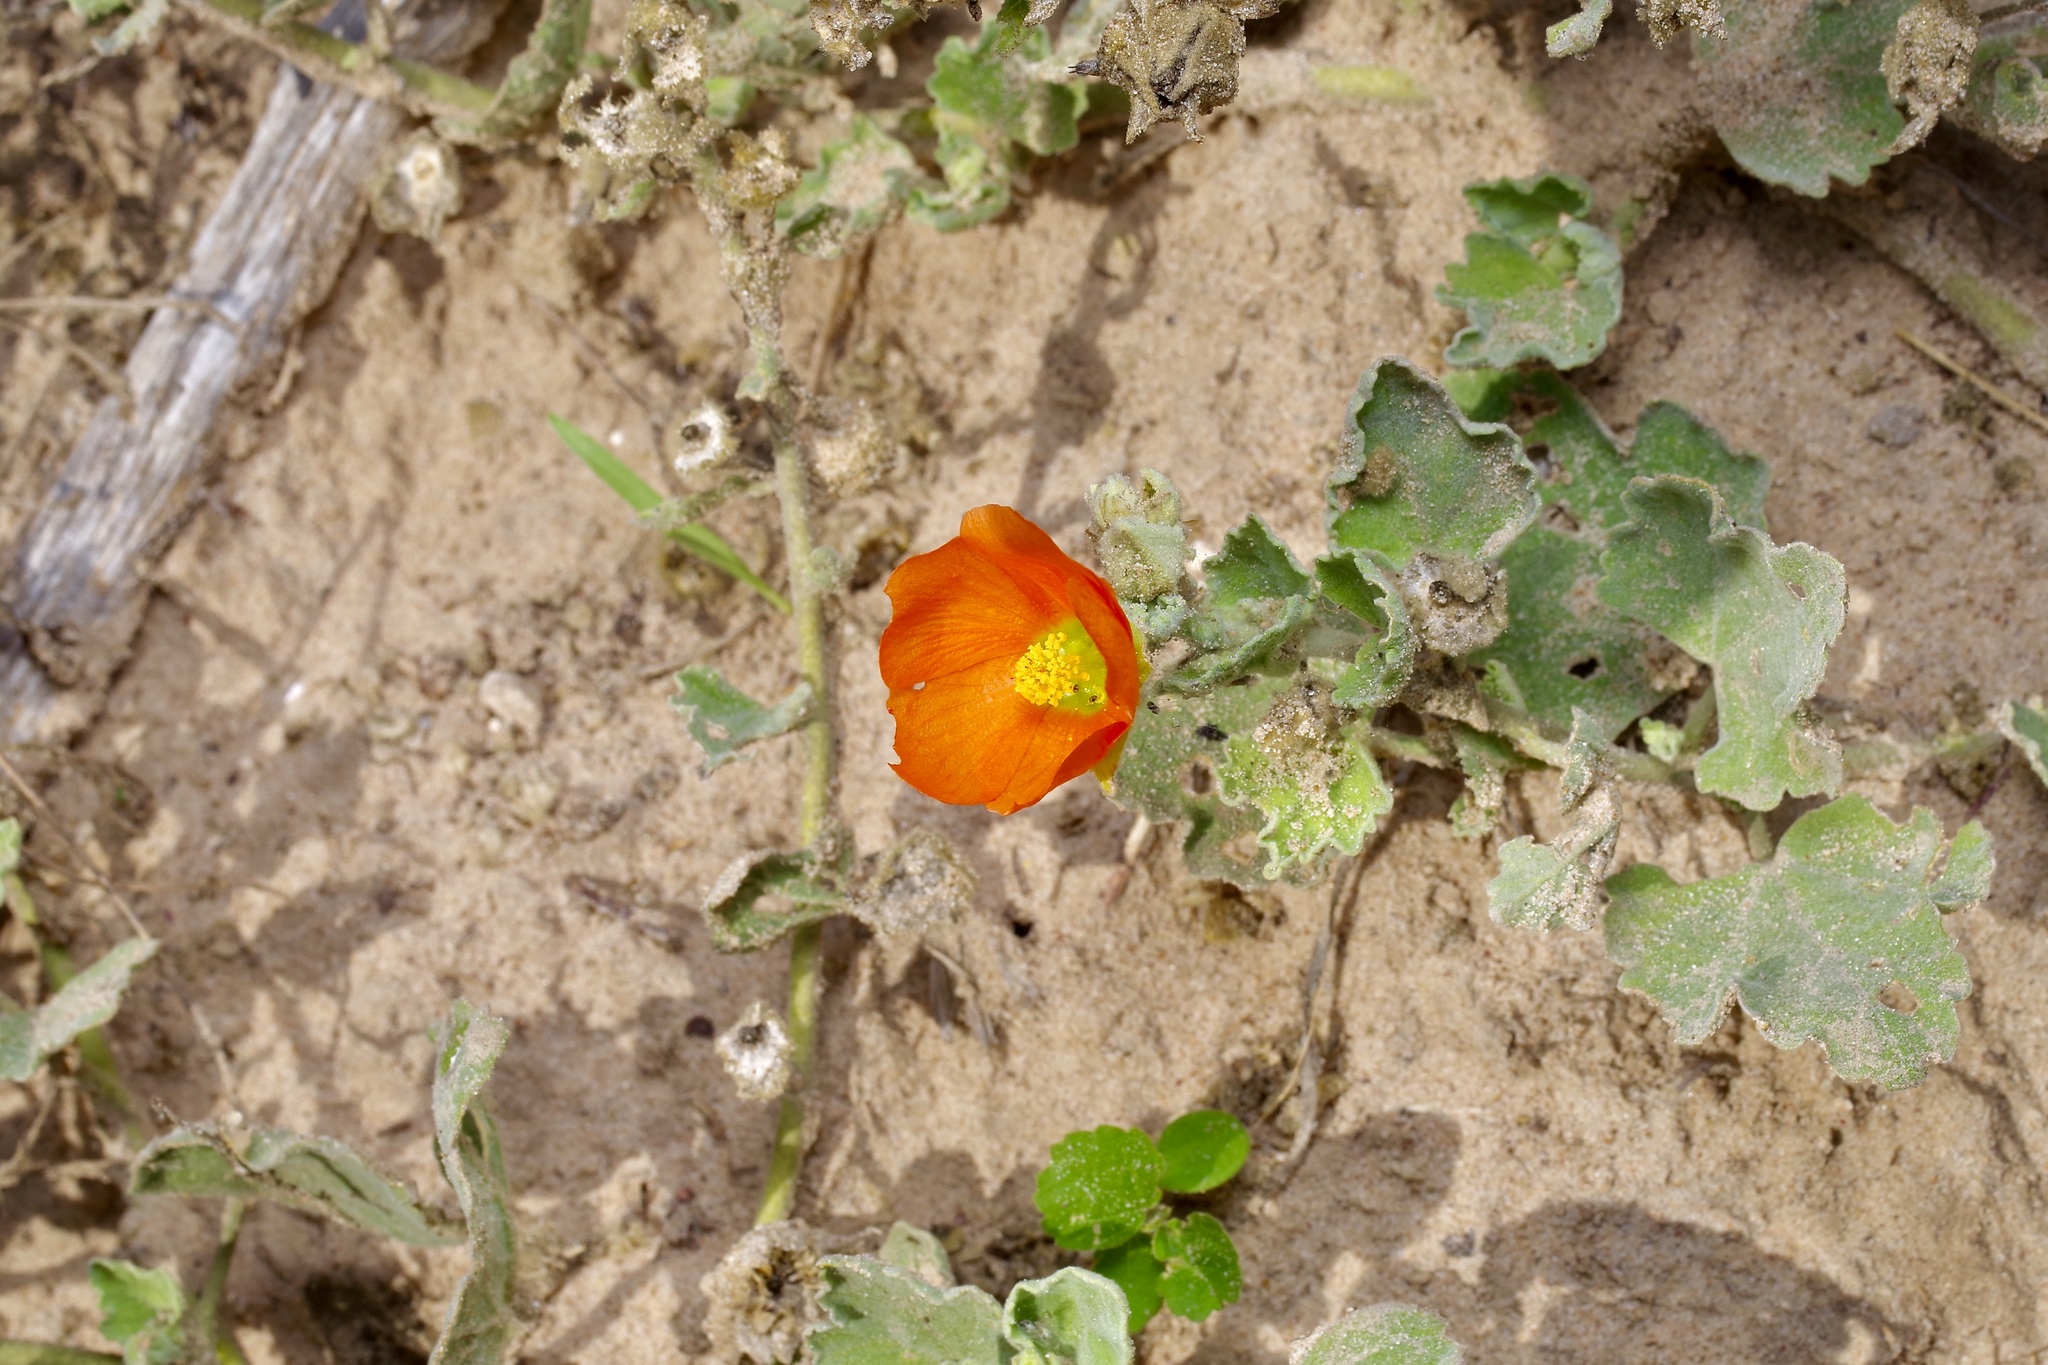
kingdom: Plantae
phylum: Tracheophyta
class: Magnoliopsida
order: Malvales
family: Malvaceae
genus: Sphaeralcea
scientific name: Sphaeralcea lindheimeri
